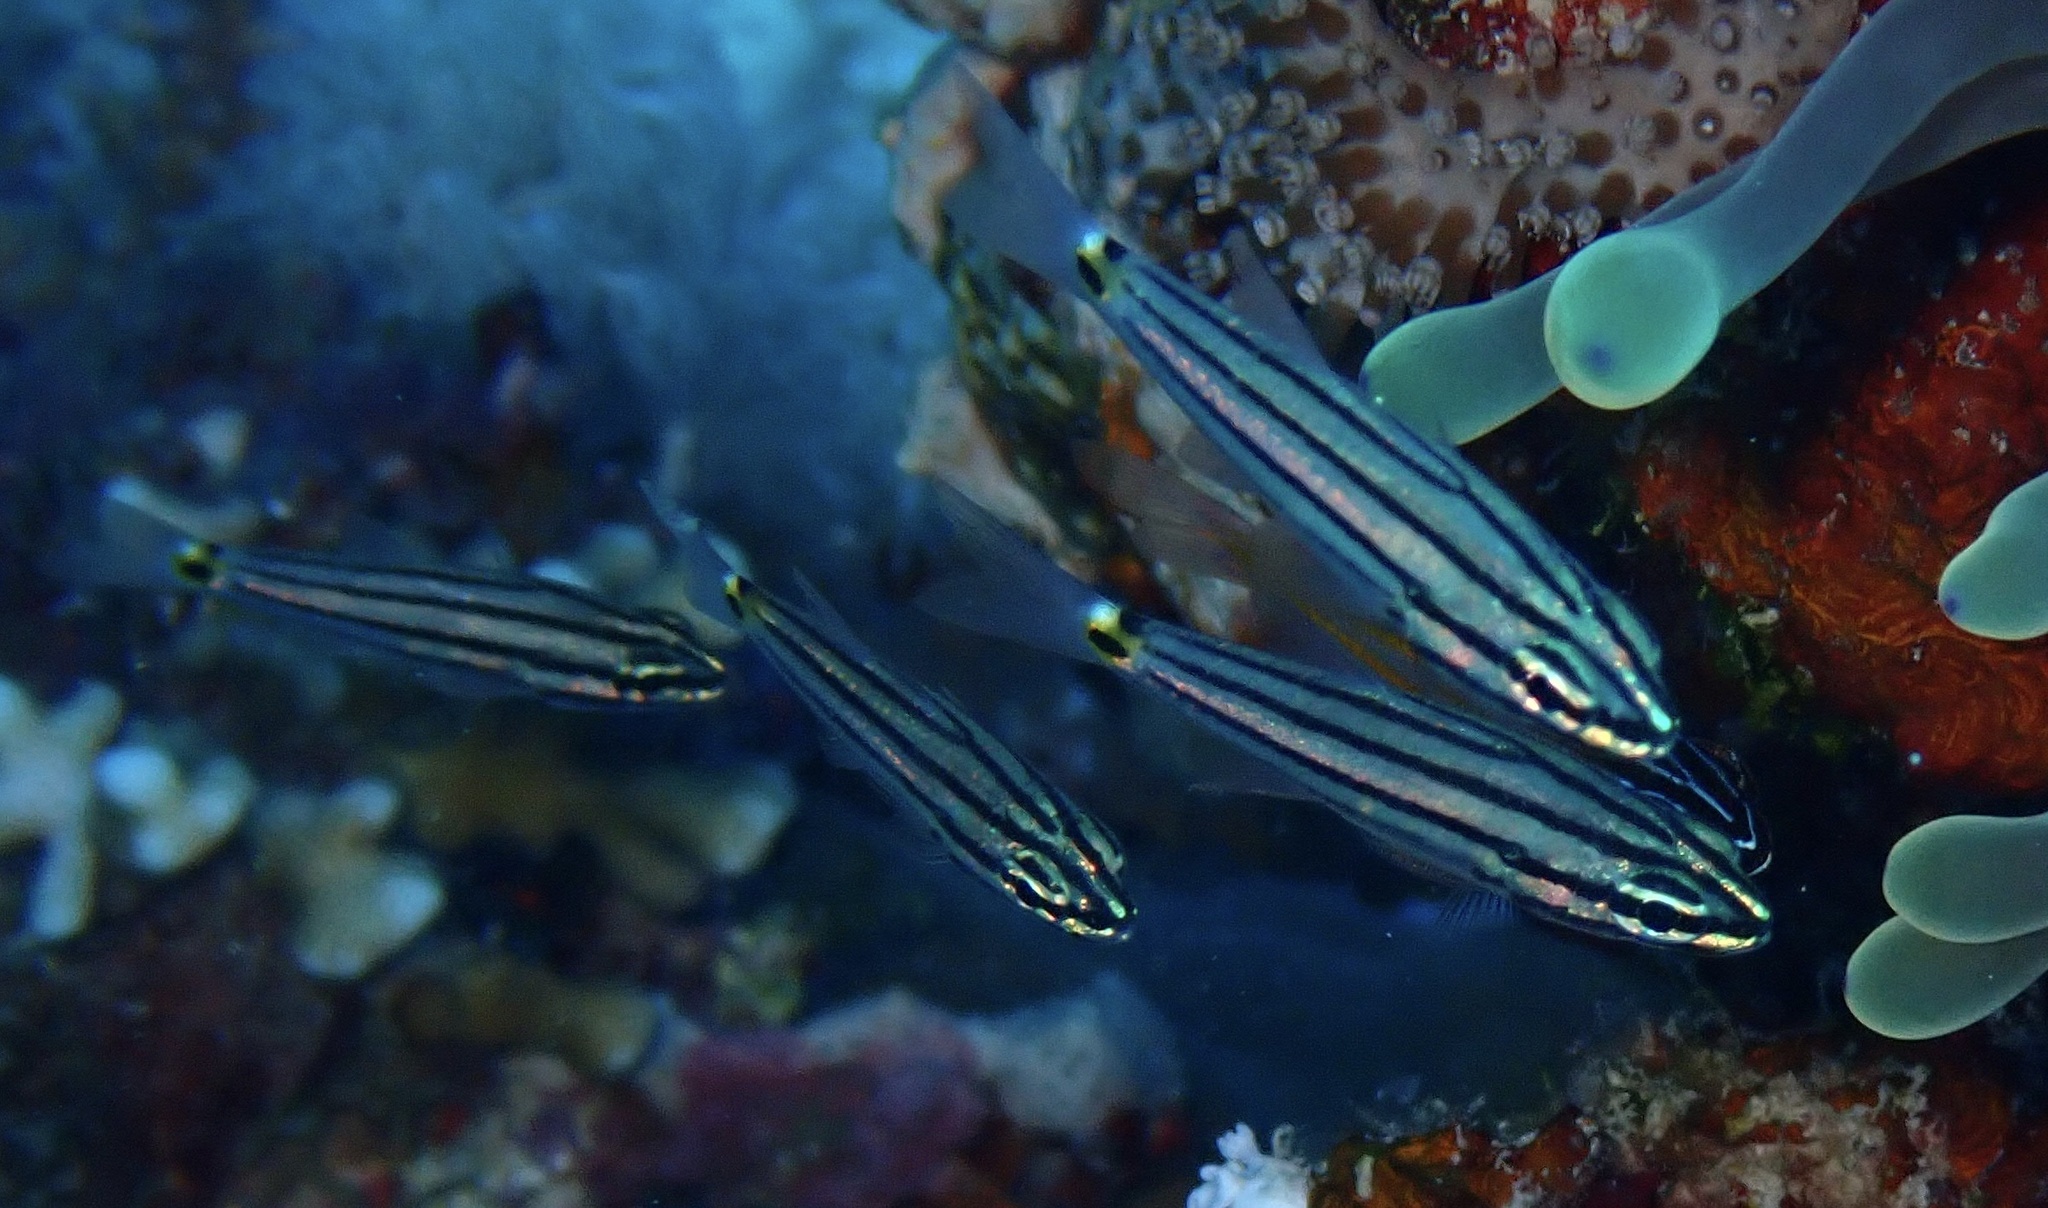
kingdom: Animalia
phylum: Chordata
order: Perciformes
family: Apogonidae
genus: Cheilodipterus
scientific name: Cheilodipterus novemstriatus
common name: Indian ocean twospot cardinalfish
